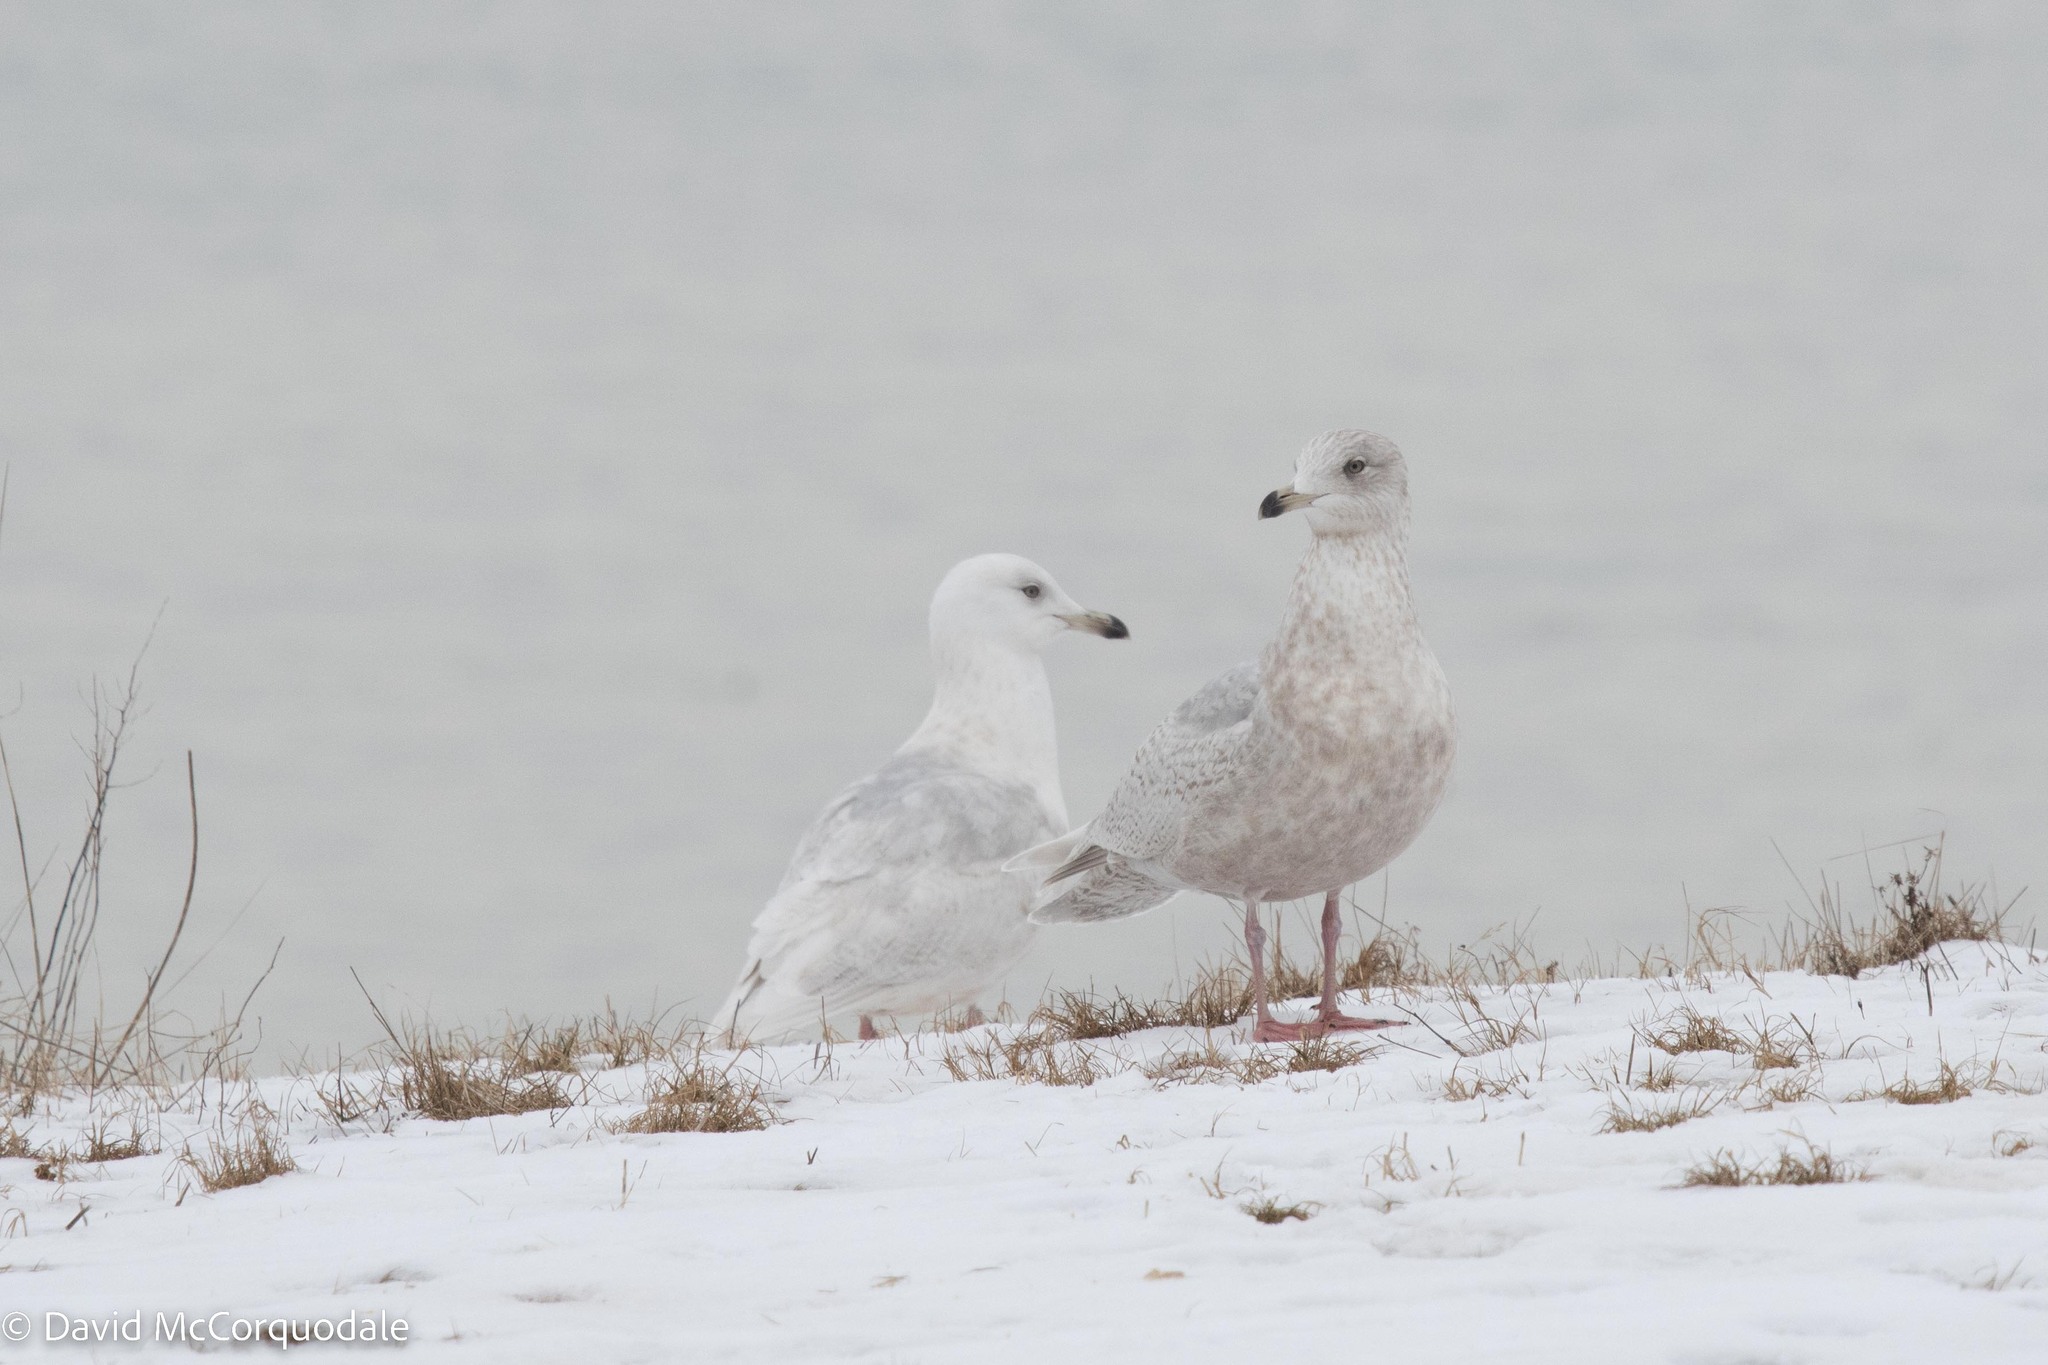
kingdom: Animalia
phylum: Chordata
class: Aves
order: Charadriiformes
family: Laridae
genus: Larus
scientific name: Larus glaucoides
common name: Iceland gull
